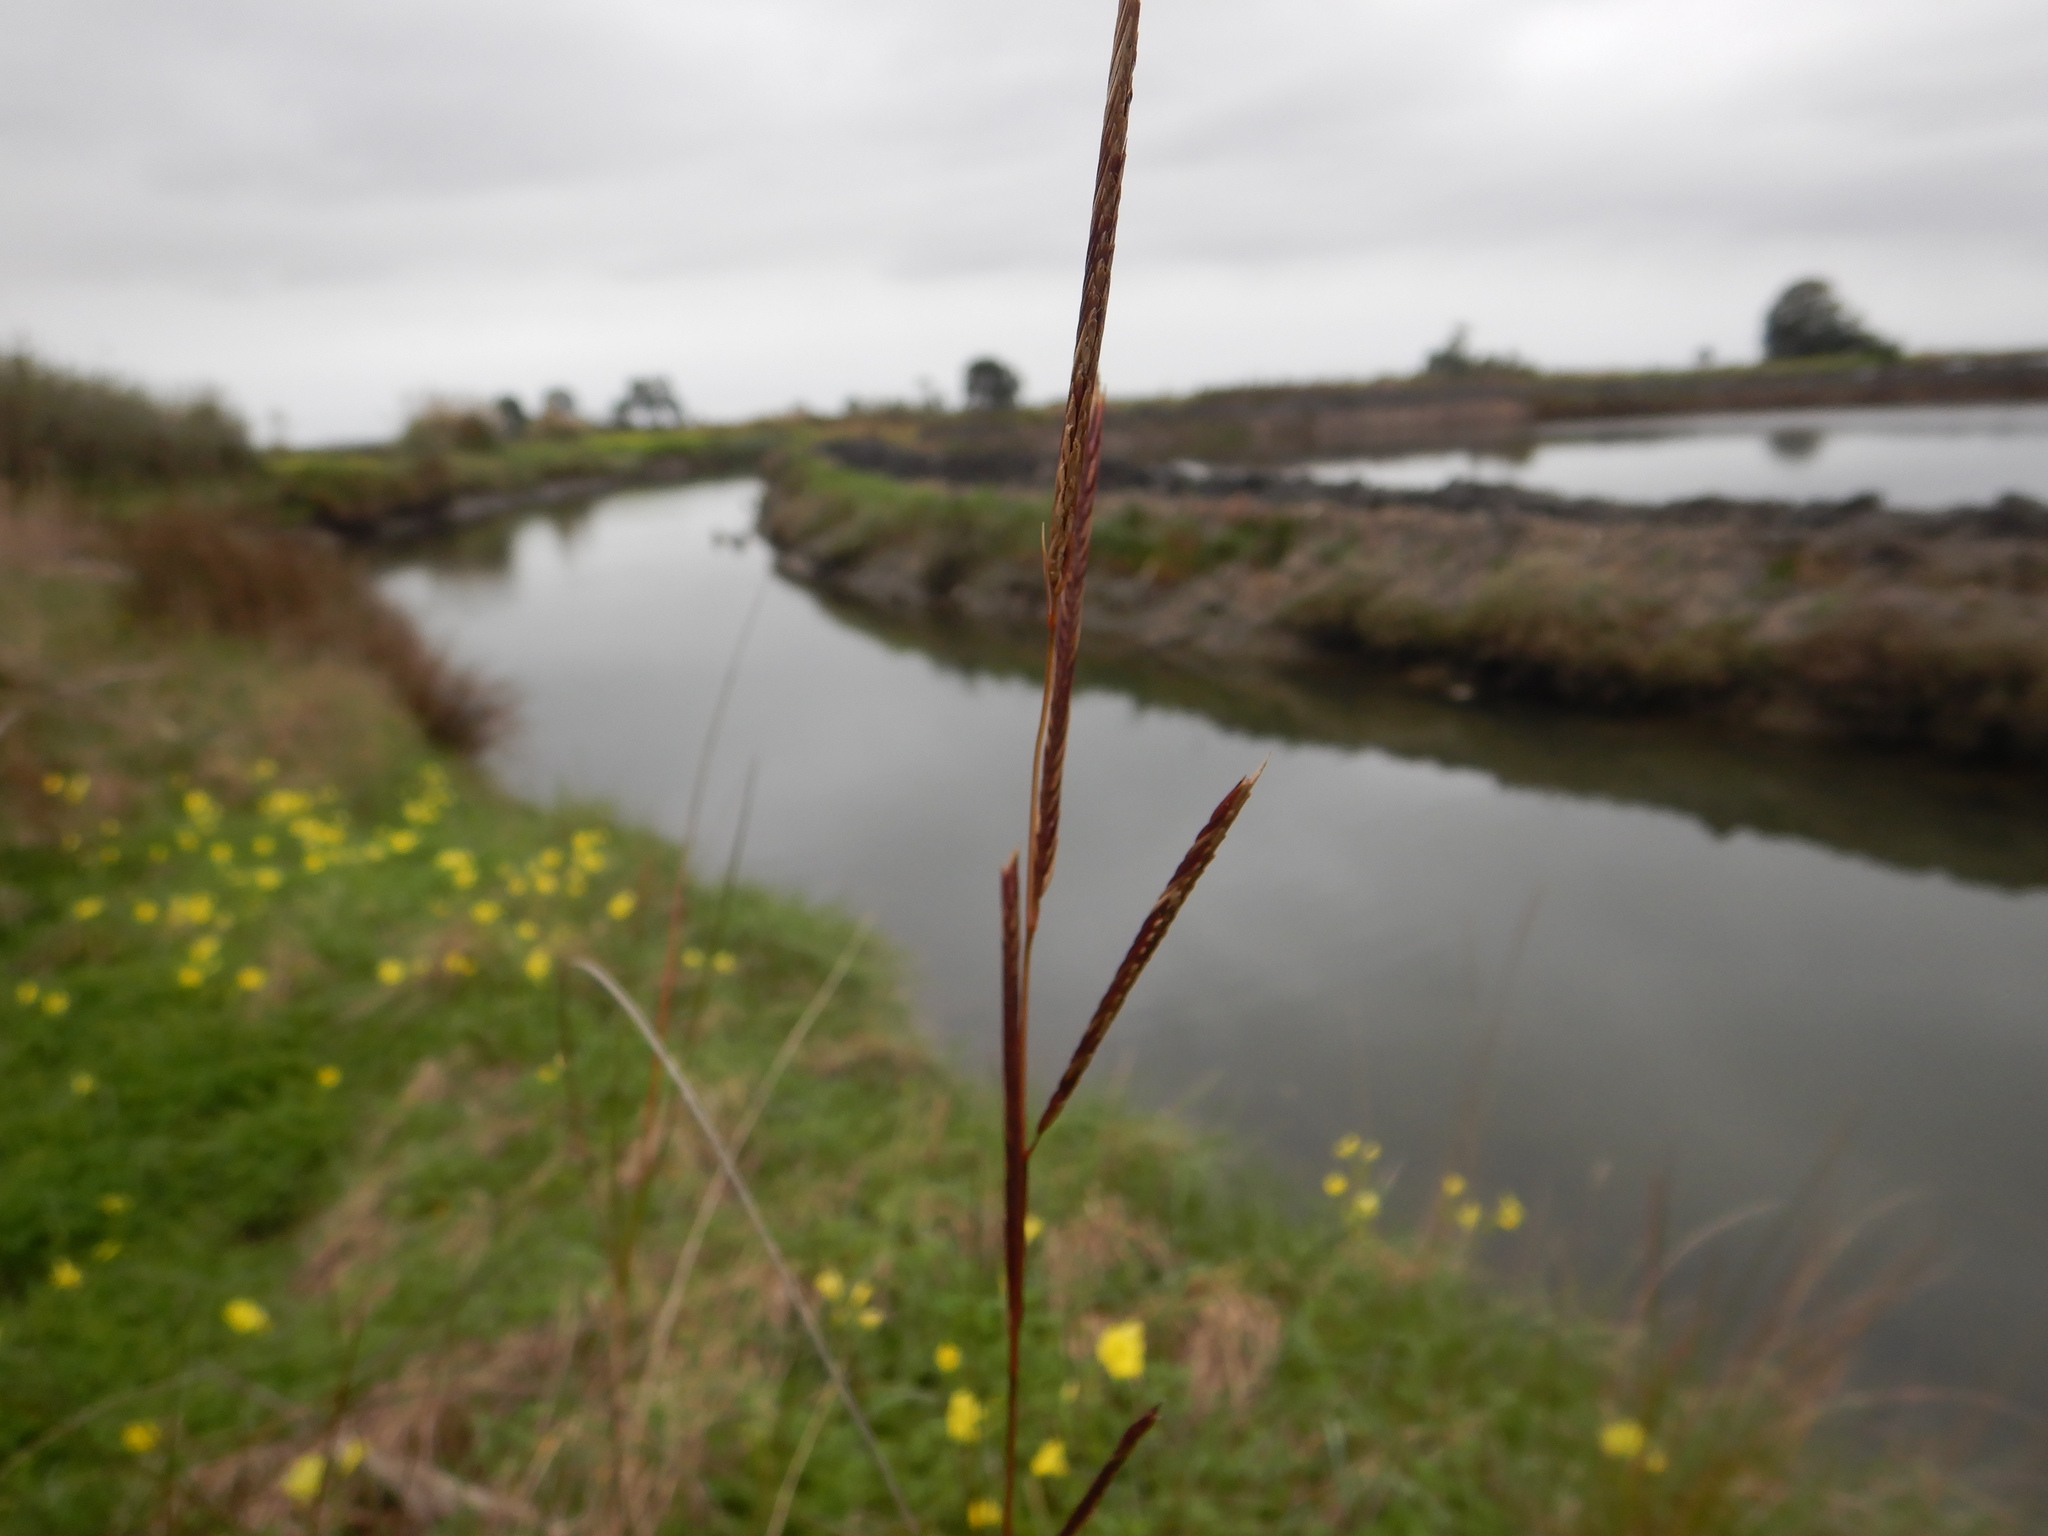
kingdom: Plantae
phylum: Tracheophyta
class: Liliopsida
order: Poales
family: Poaceae
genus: Sporobolus
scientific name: Sporobolus pumilus
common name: Highwater grass
